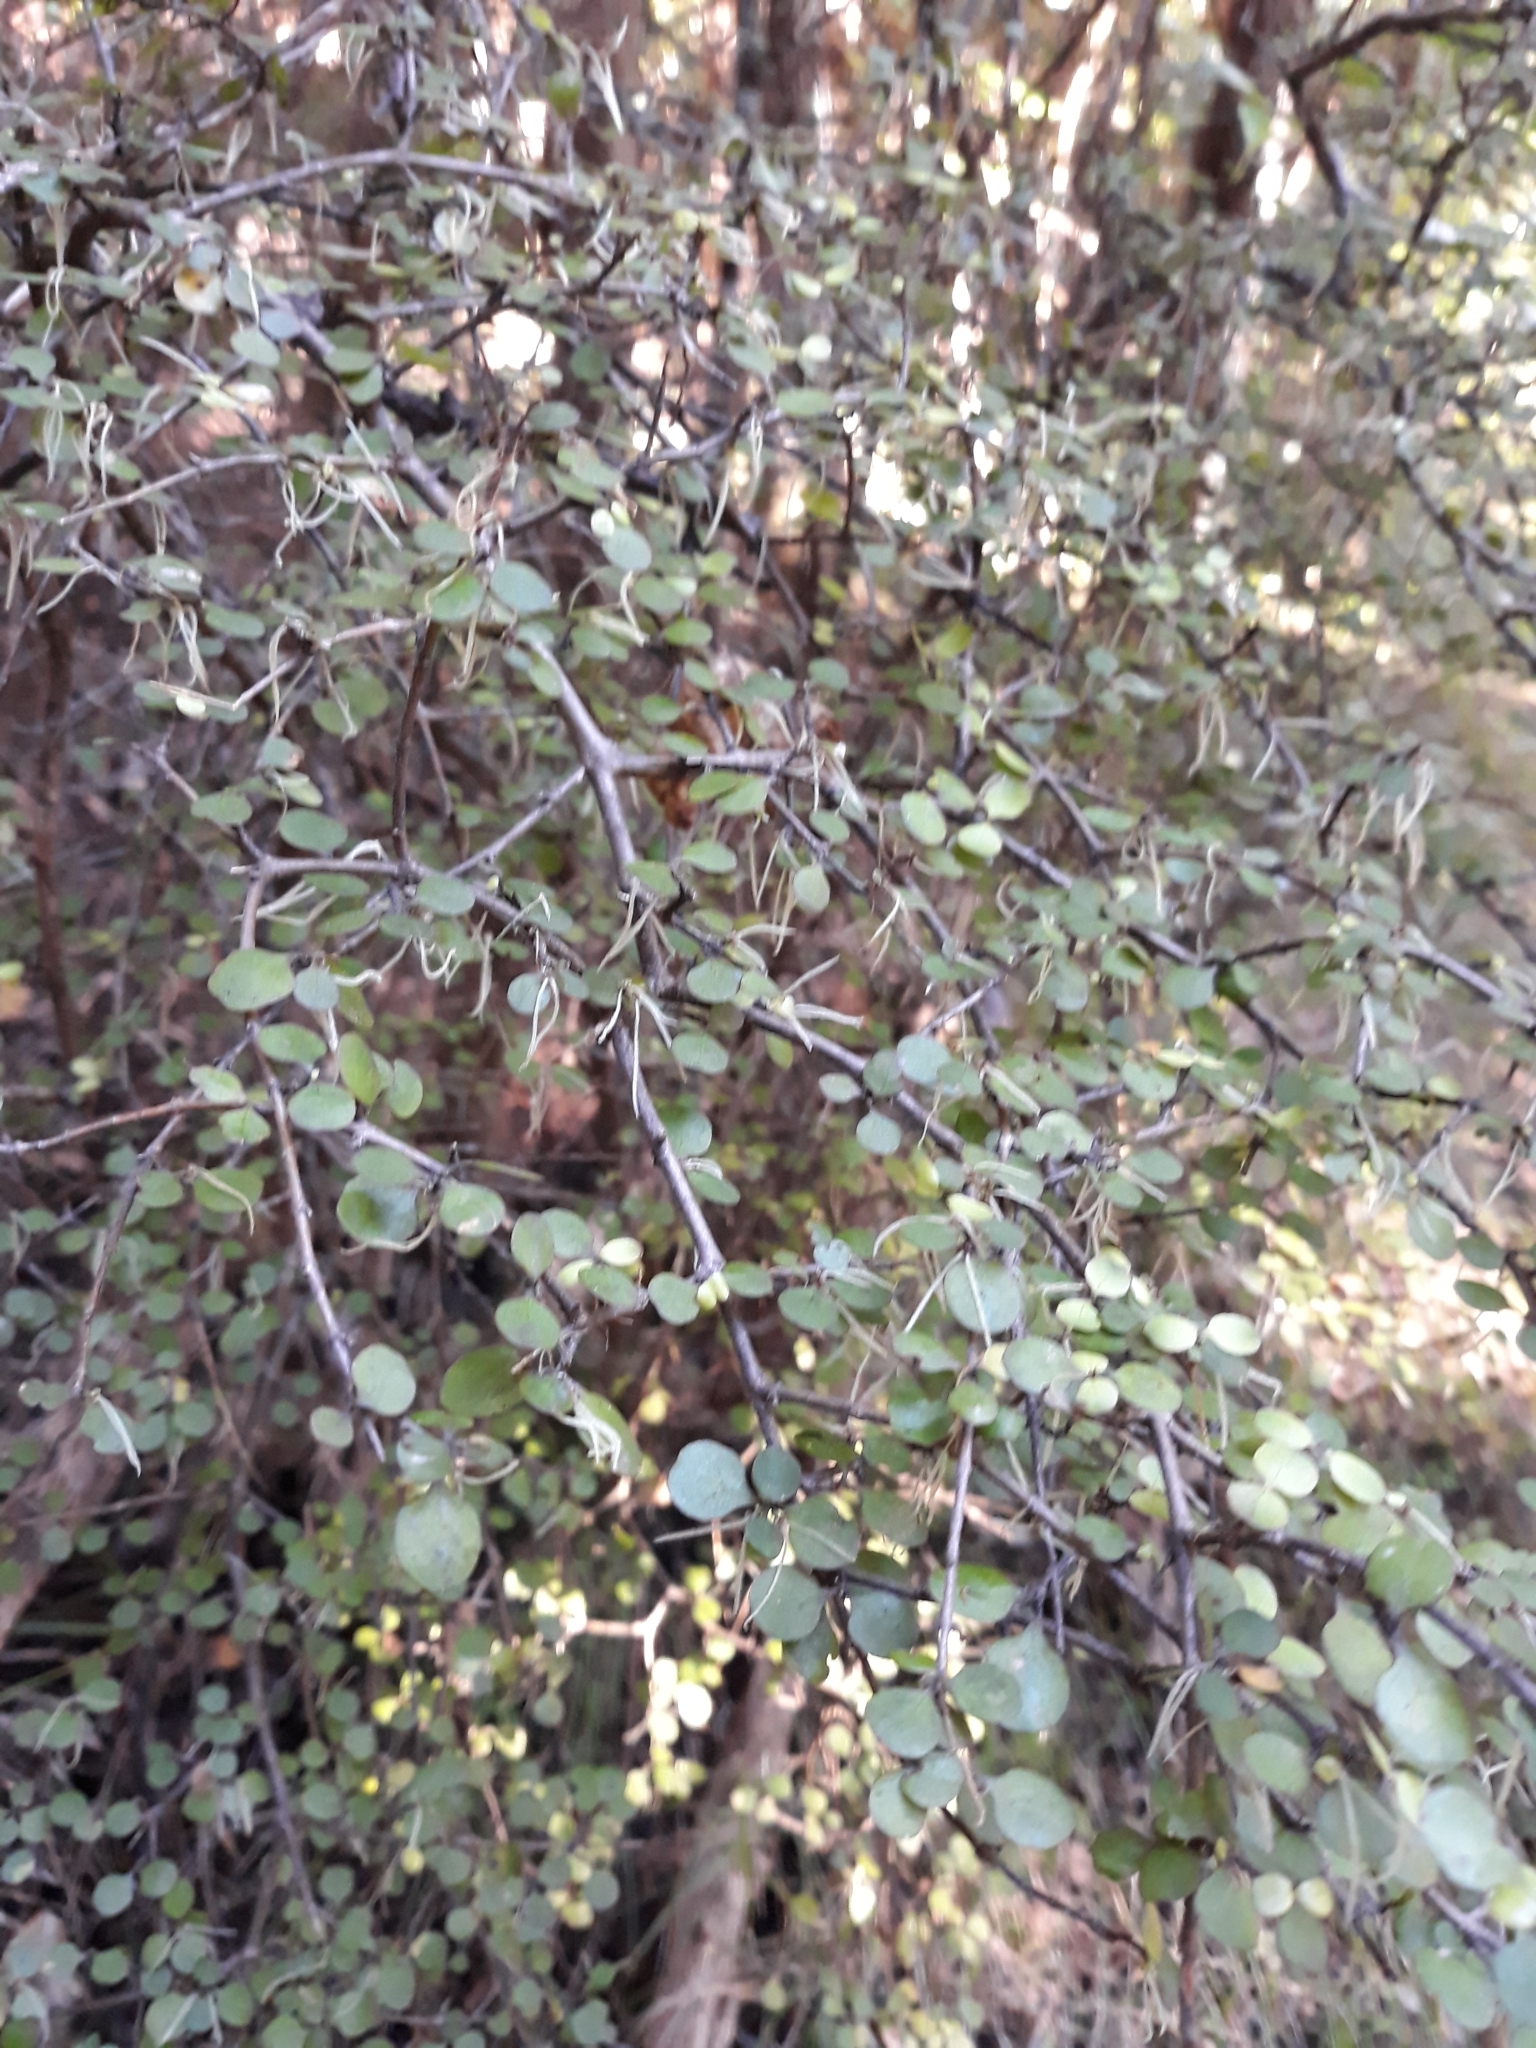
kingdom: Plantae
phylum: Tracheophyta
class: Magnoliopsida
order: Gentianales
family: Rubiaceae
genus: Coprosma
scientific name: Coprosma crassifolia
